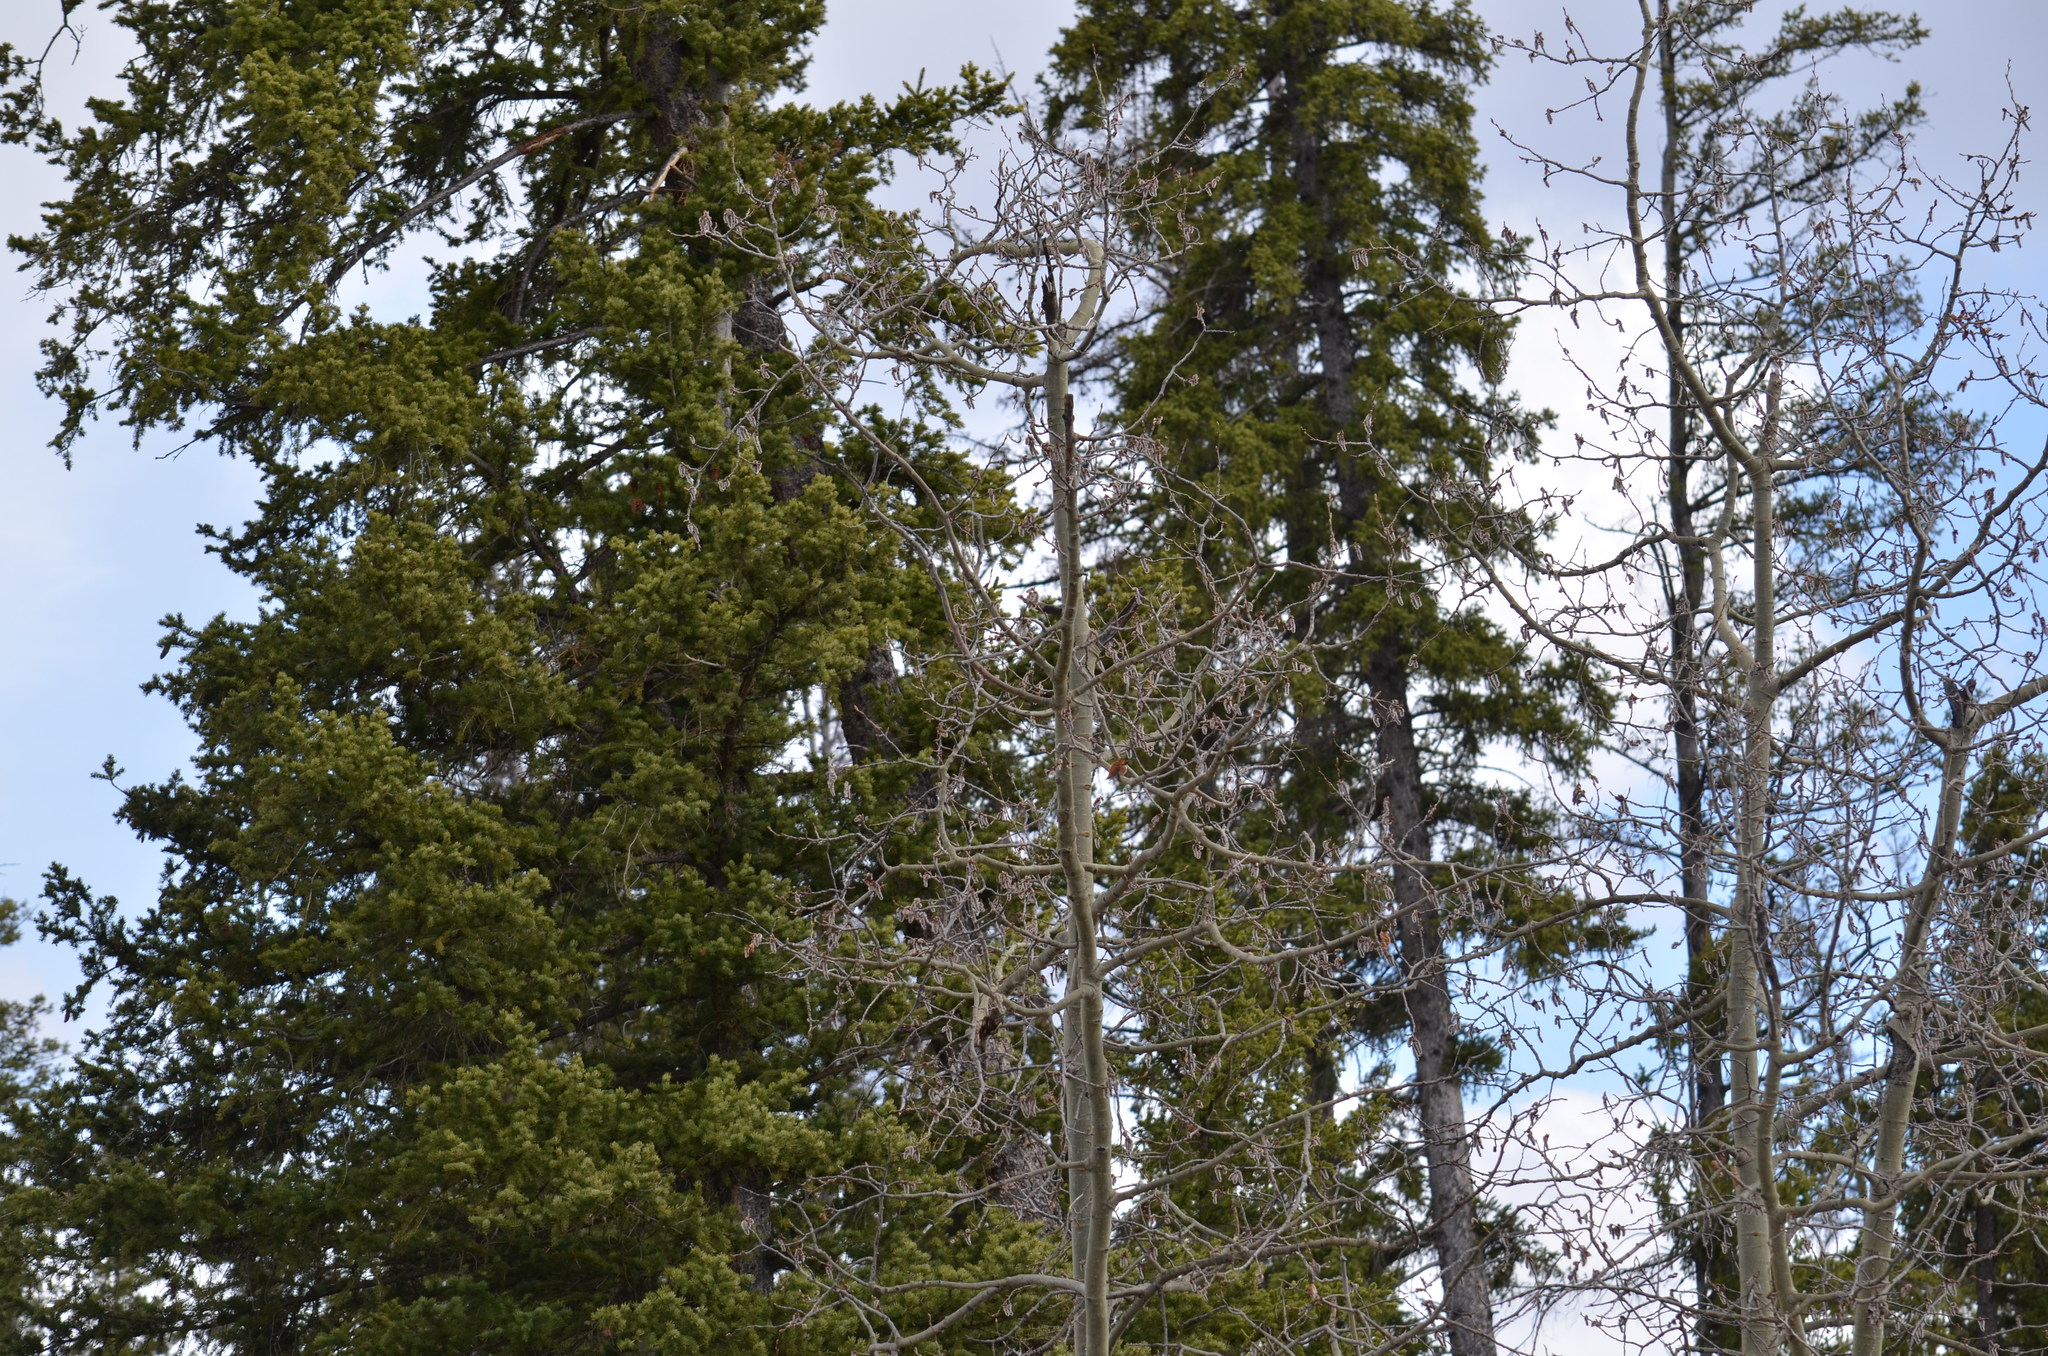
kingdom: Animalia
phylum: Chordata
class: Aves
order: Apodiformes
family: Trochilidae
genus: Selasphorus
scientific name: Selasphorus rufus
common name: Rufous hummingbird
